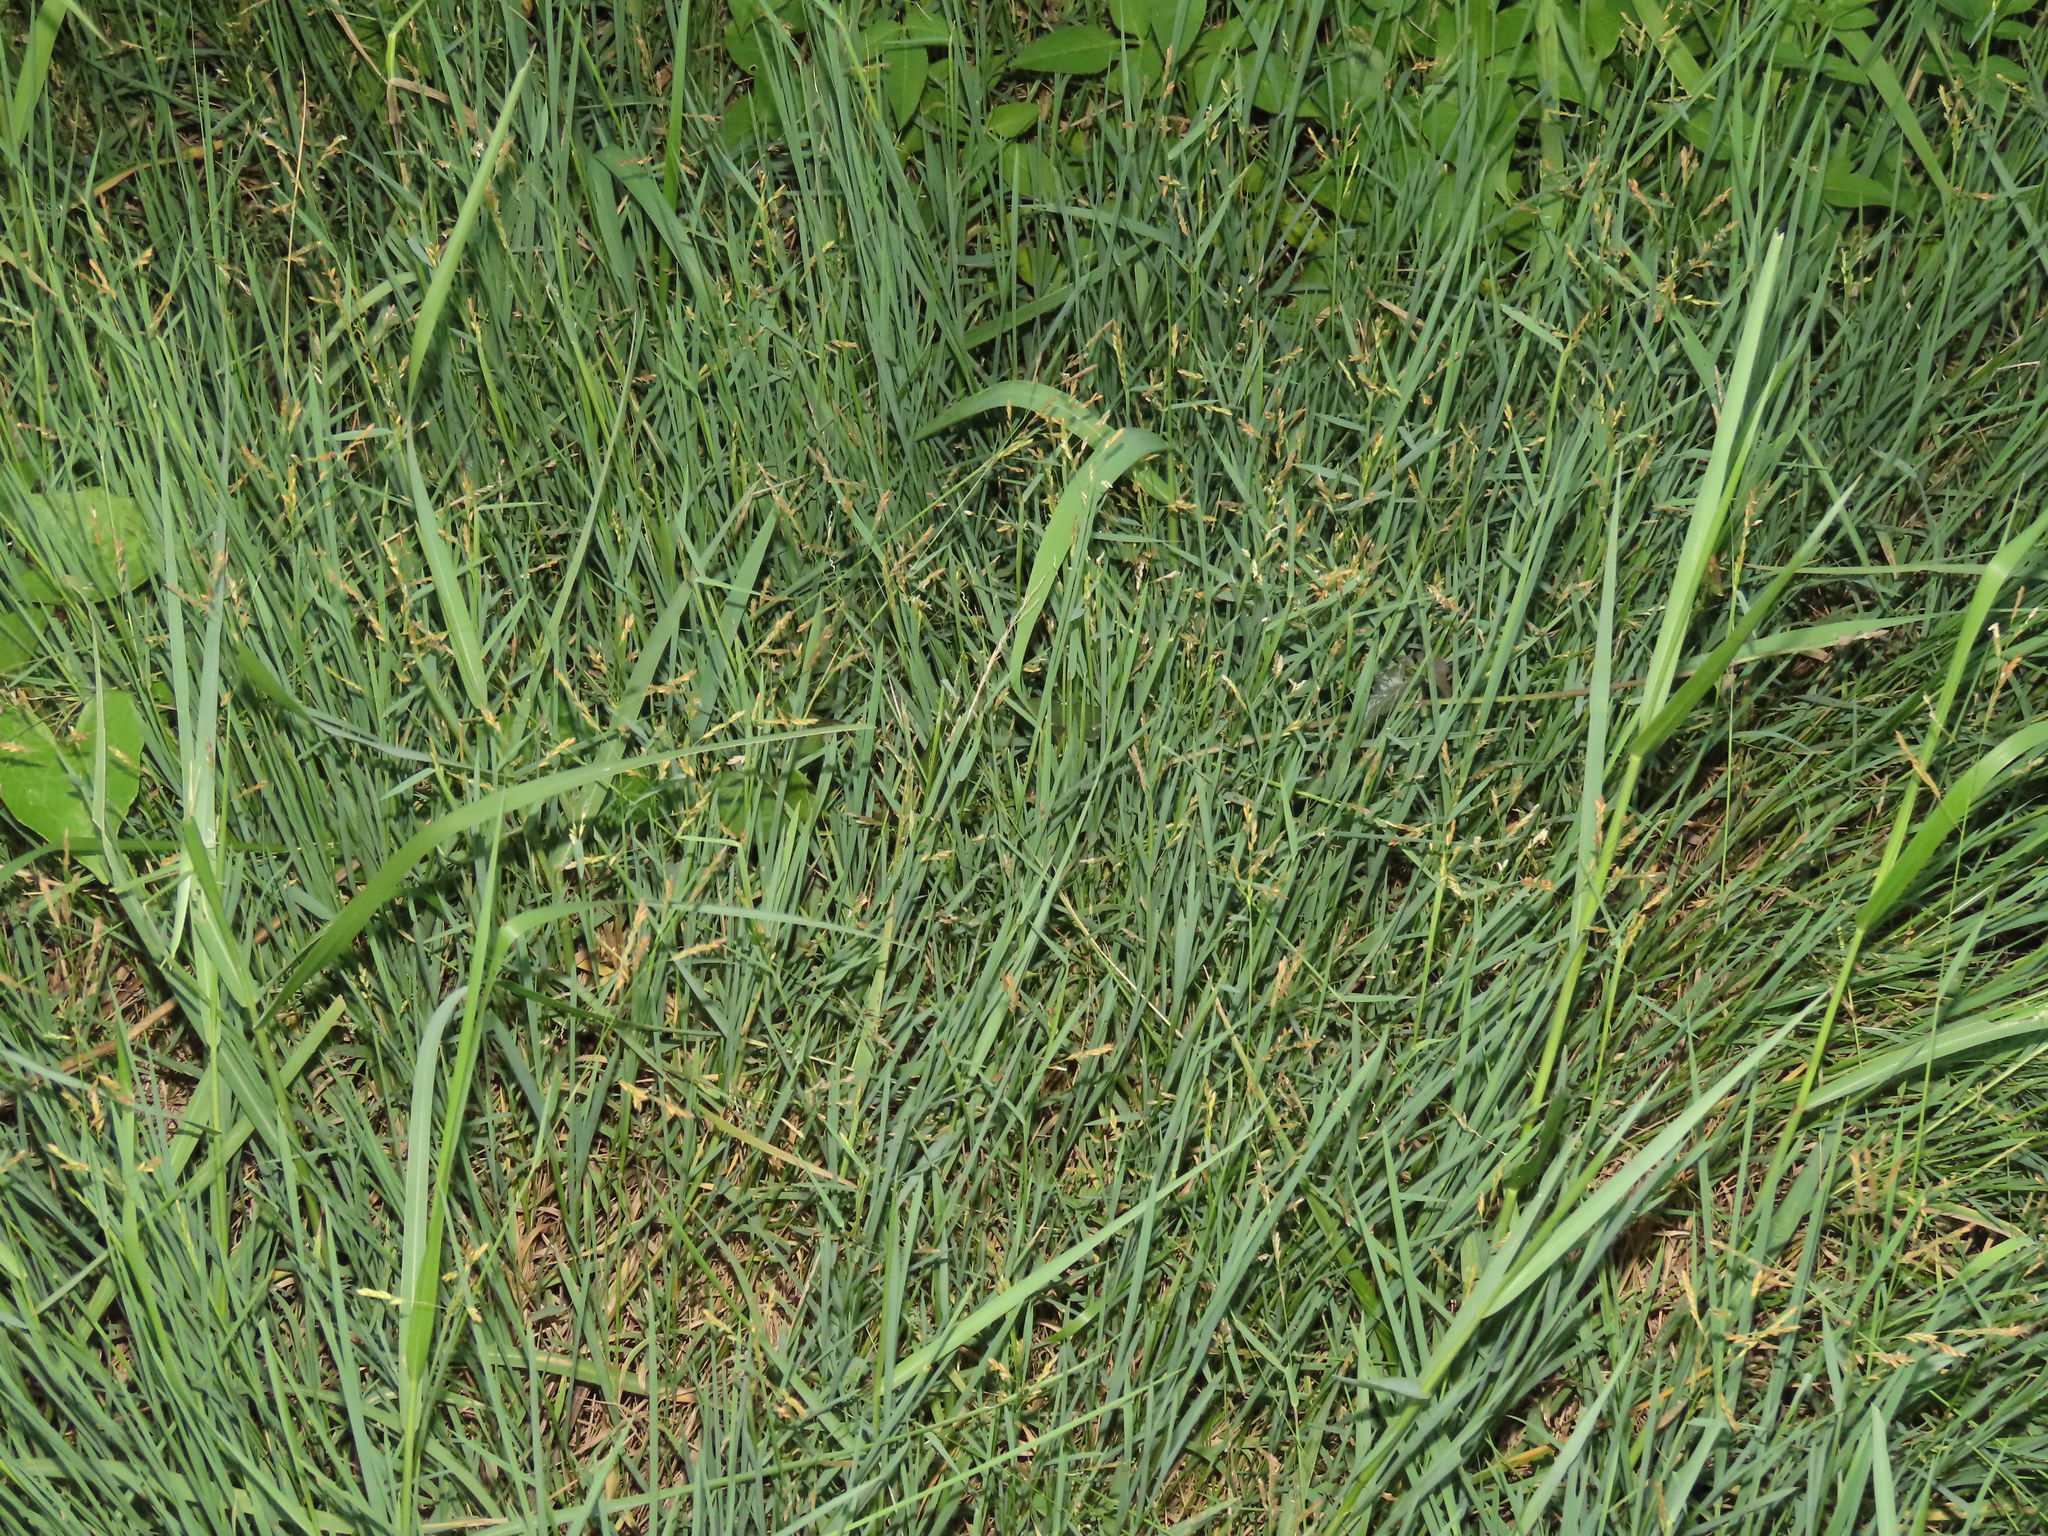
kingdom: Plantae
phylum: Tracheophyta
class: Liliopsida
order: Poales
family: Poaceae
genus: Leersia
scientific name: Leersia hexandra
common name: Southern cut grass
